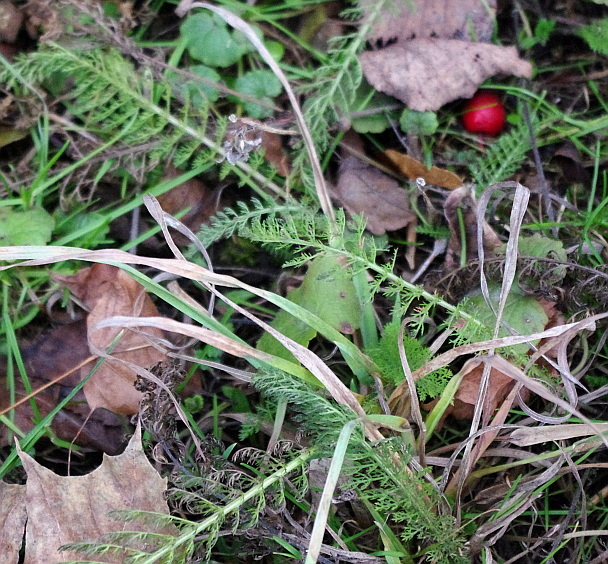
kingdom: Plantae
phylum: Tracheophyta
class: Magnoliopsida
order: Asterales
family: Asteraceae
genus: Achillea
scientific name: Achillea millefolium
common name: Yarrow
